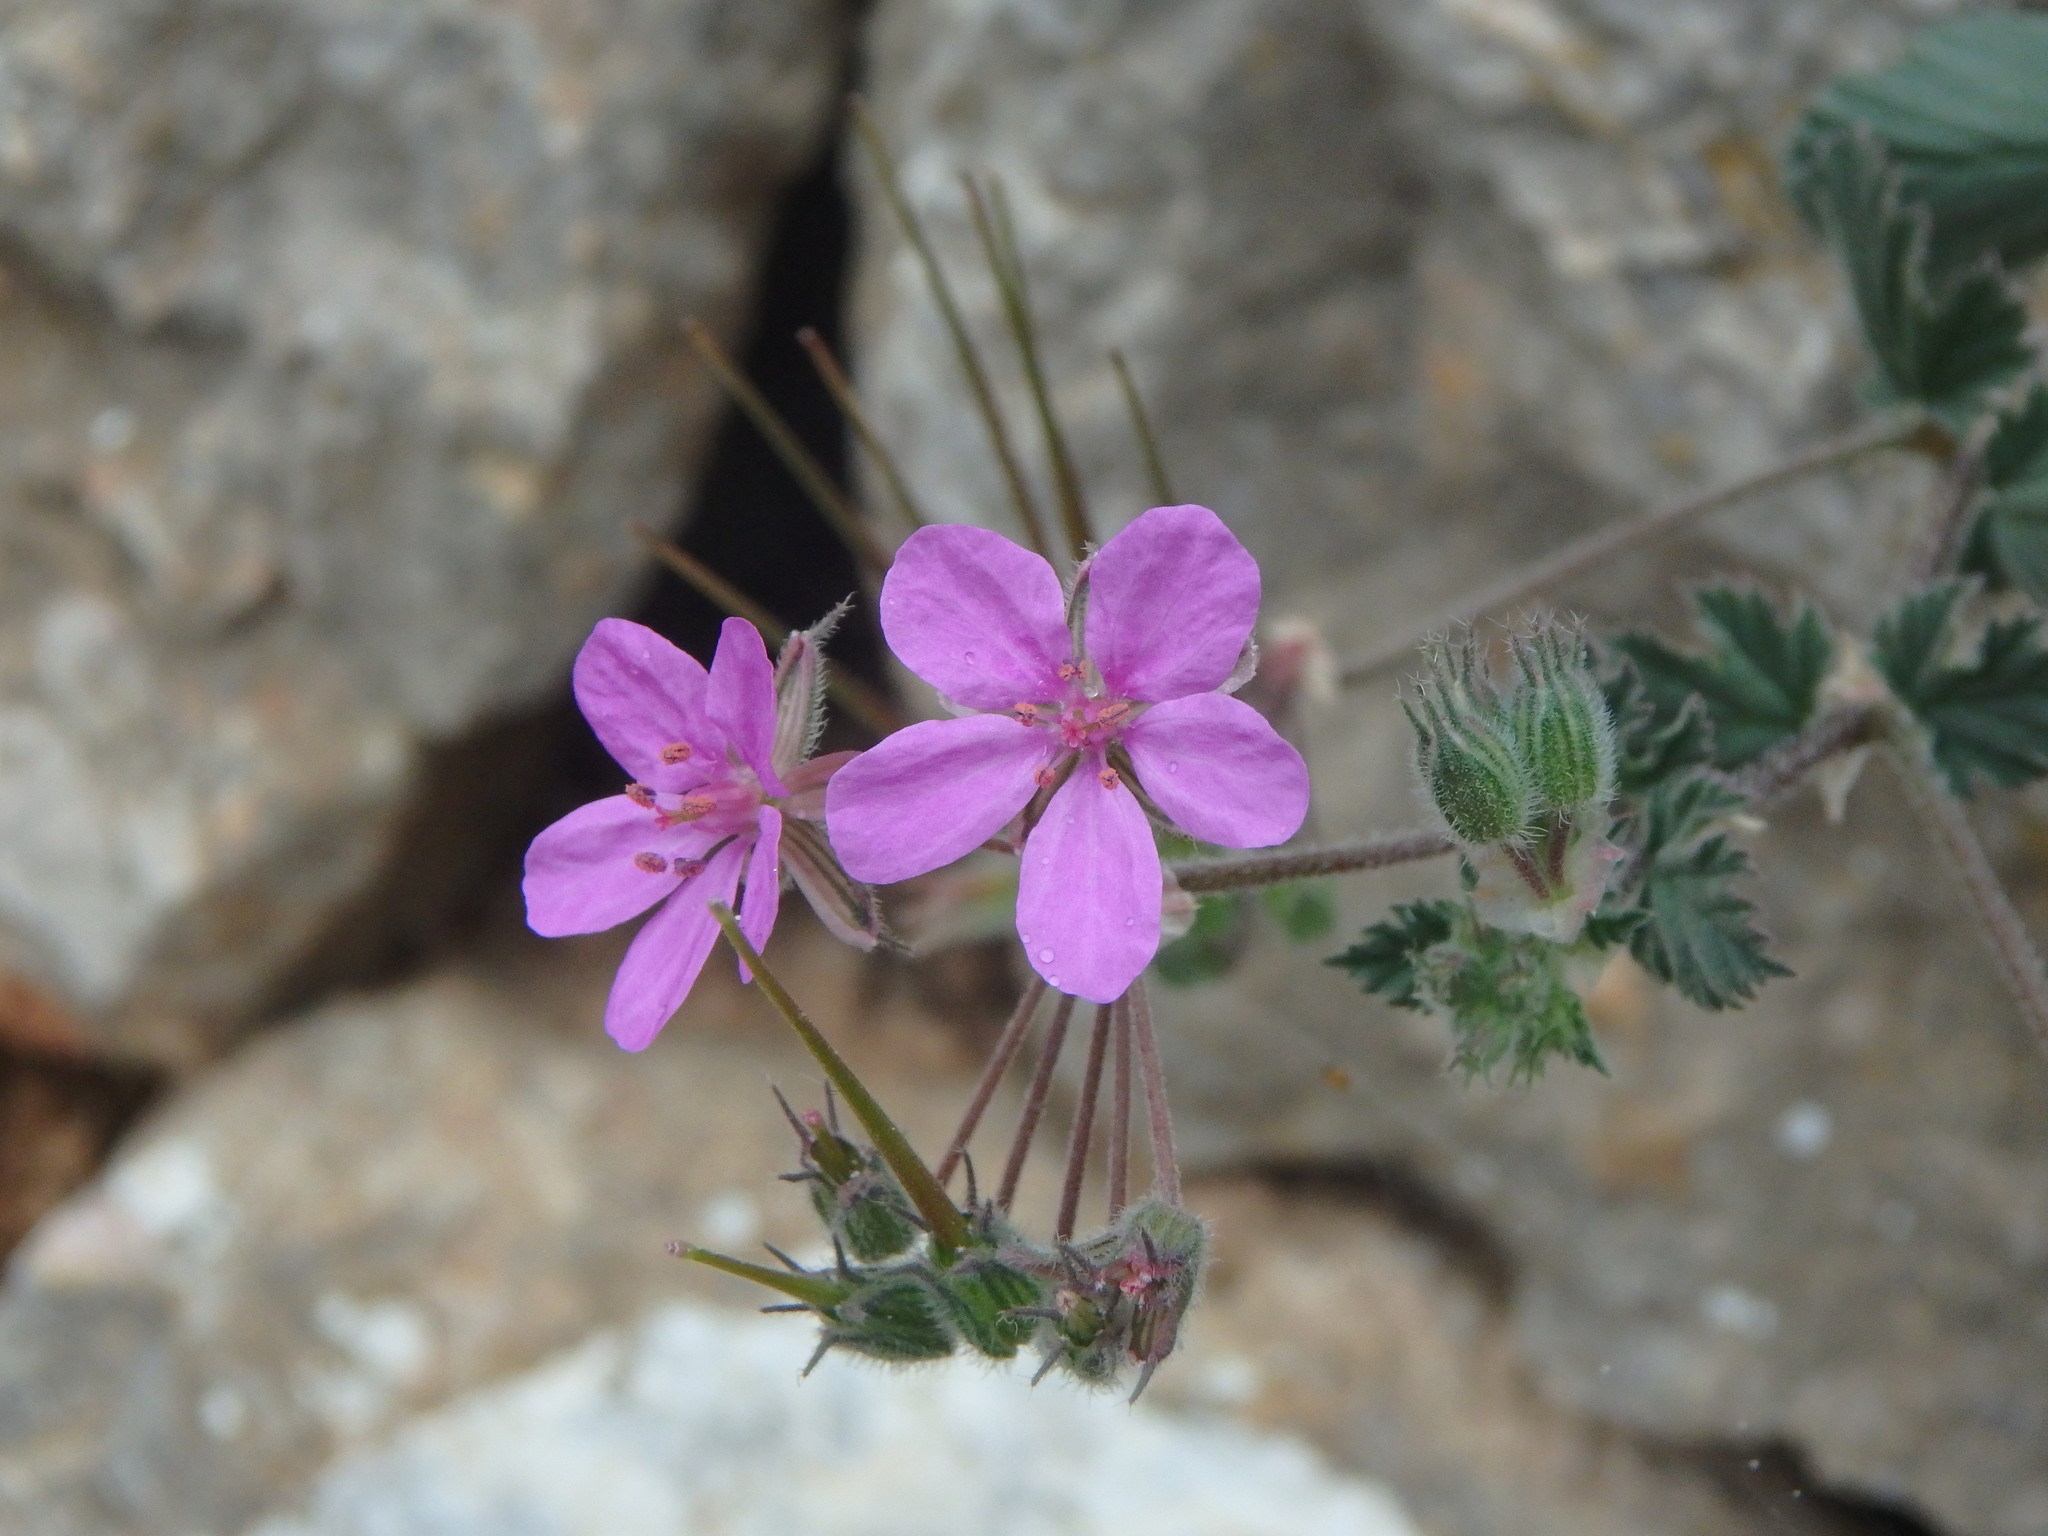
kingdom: Plantae
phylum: Tracheophyta
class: Magnoliopsida
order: Geraniales
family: Geraniaceae
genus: Erodium
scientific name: Erodium malacoides
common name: Soft stork's-bill
